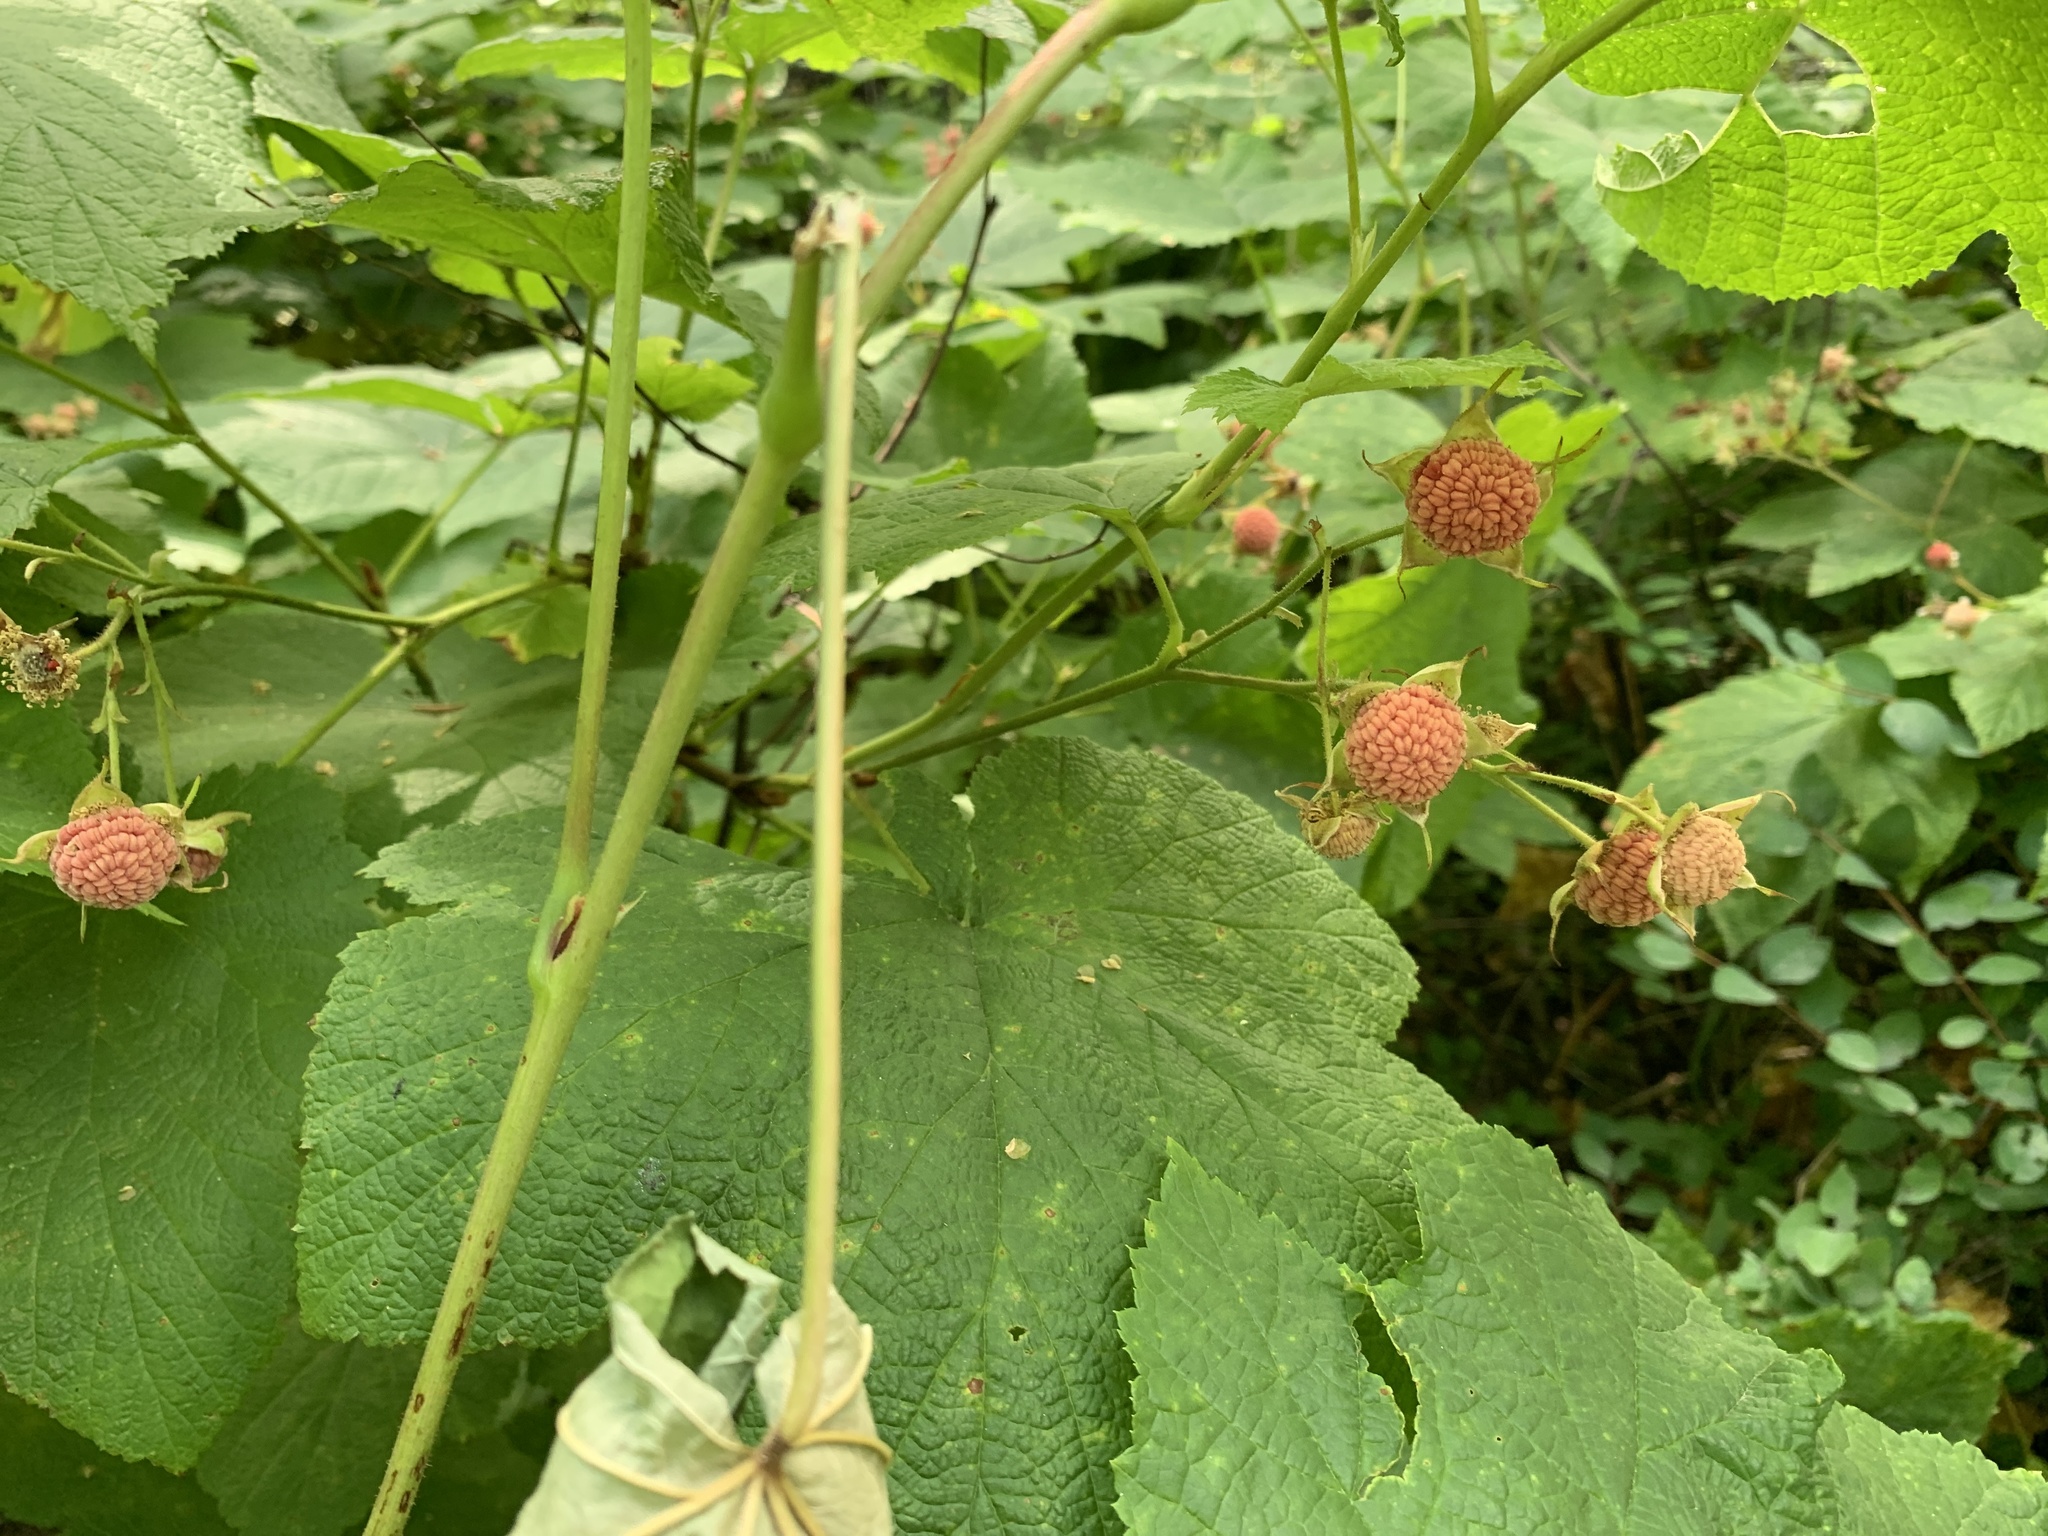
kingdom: Plantae
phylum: Tracheophyta
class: Magnoliopsida
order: Rosales
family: Rosaceae
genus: Rubus
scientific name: Rubus parviflorus
